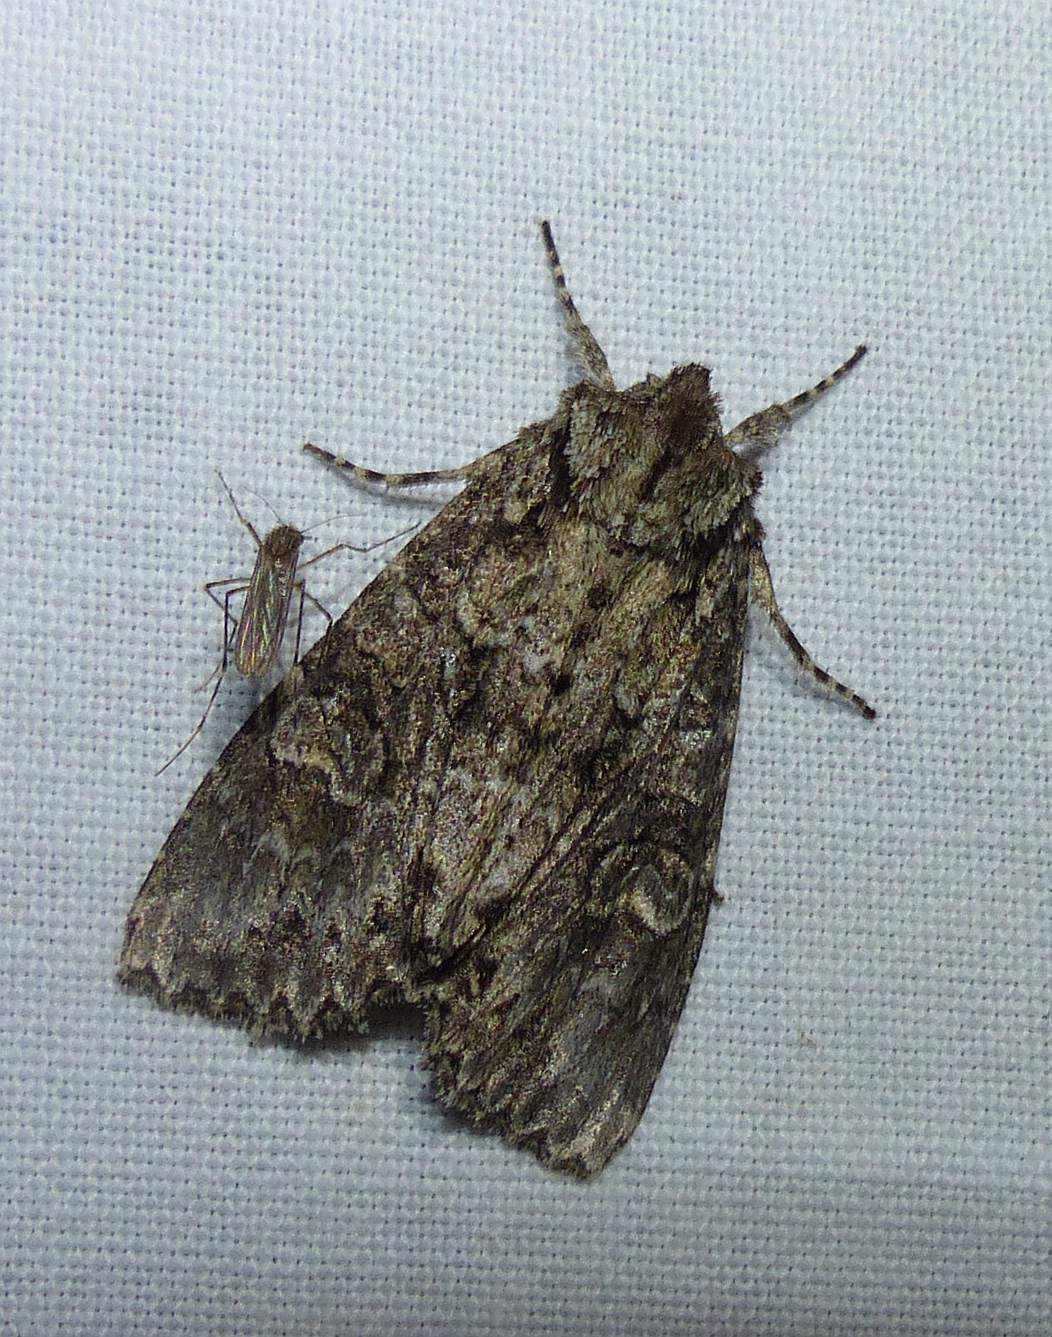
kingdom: Animalia
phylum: Arthropoda
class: Insecta
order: Lepidoptera
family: Noctuidae
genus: Polia
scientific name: Polia imbrifera
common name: Cloudy arches moth
